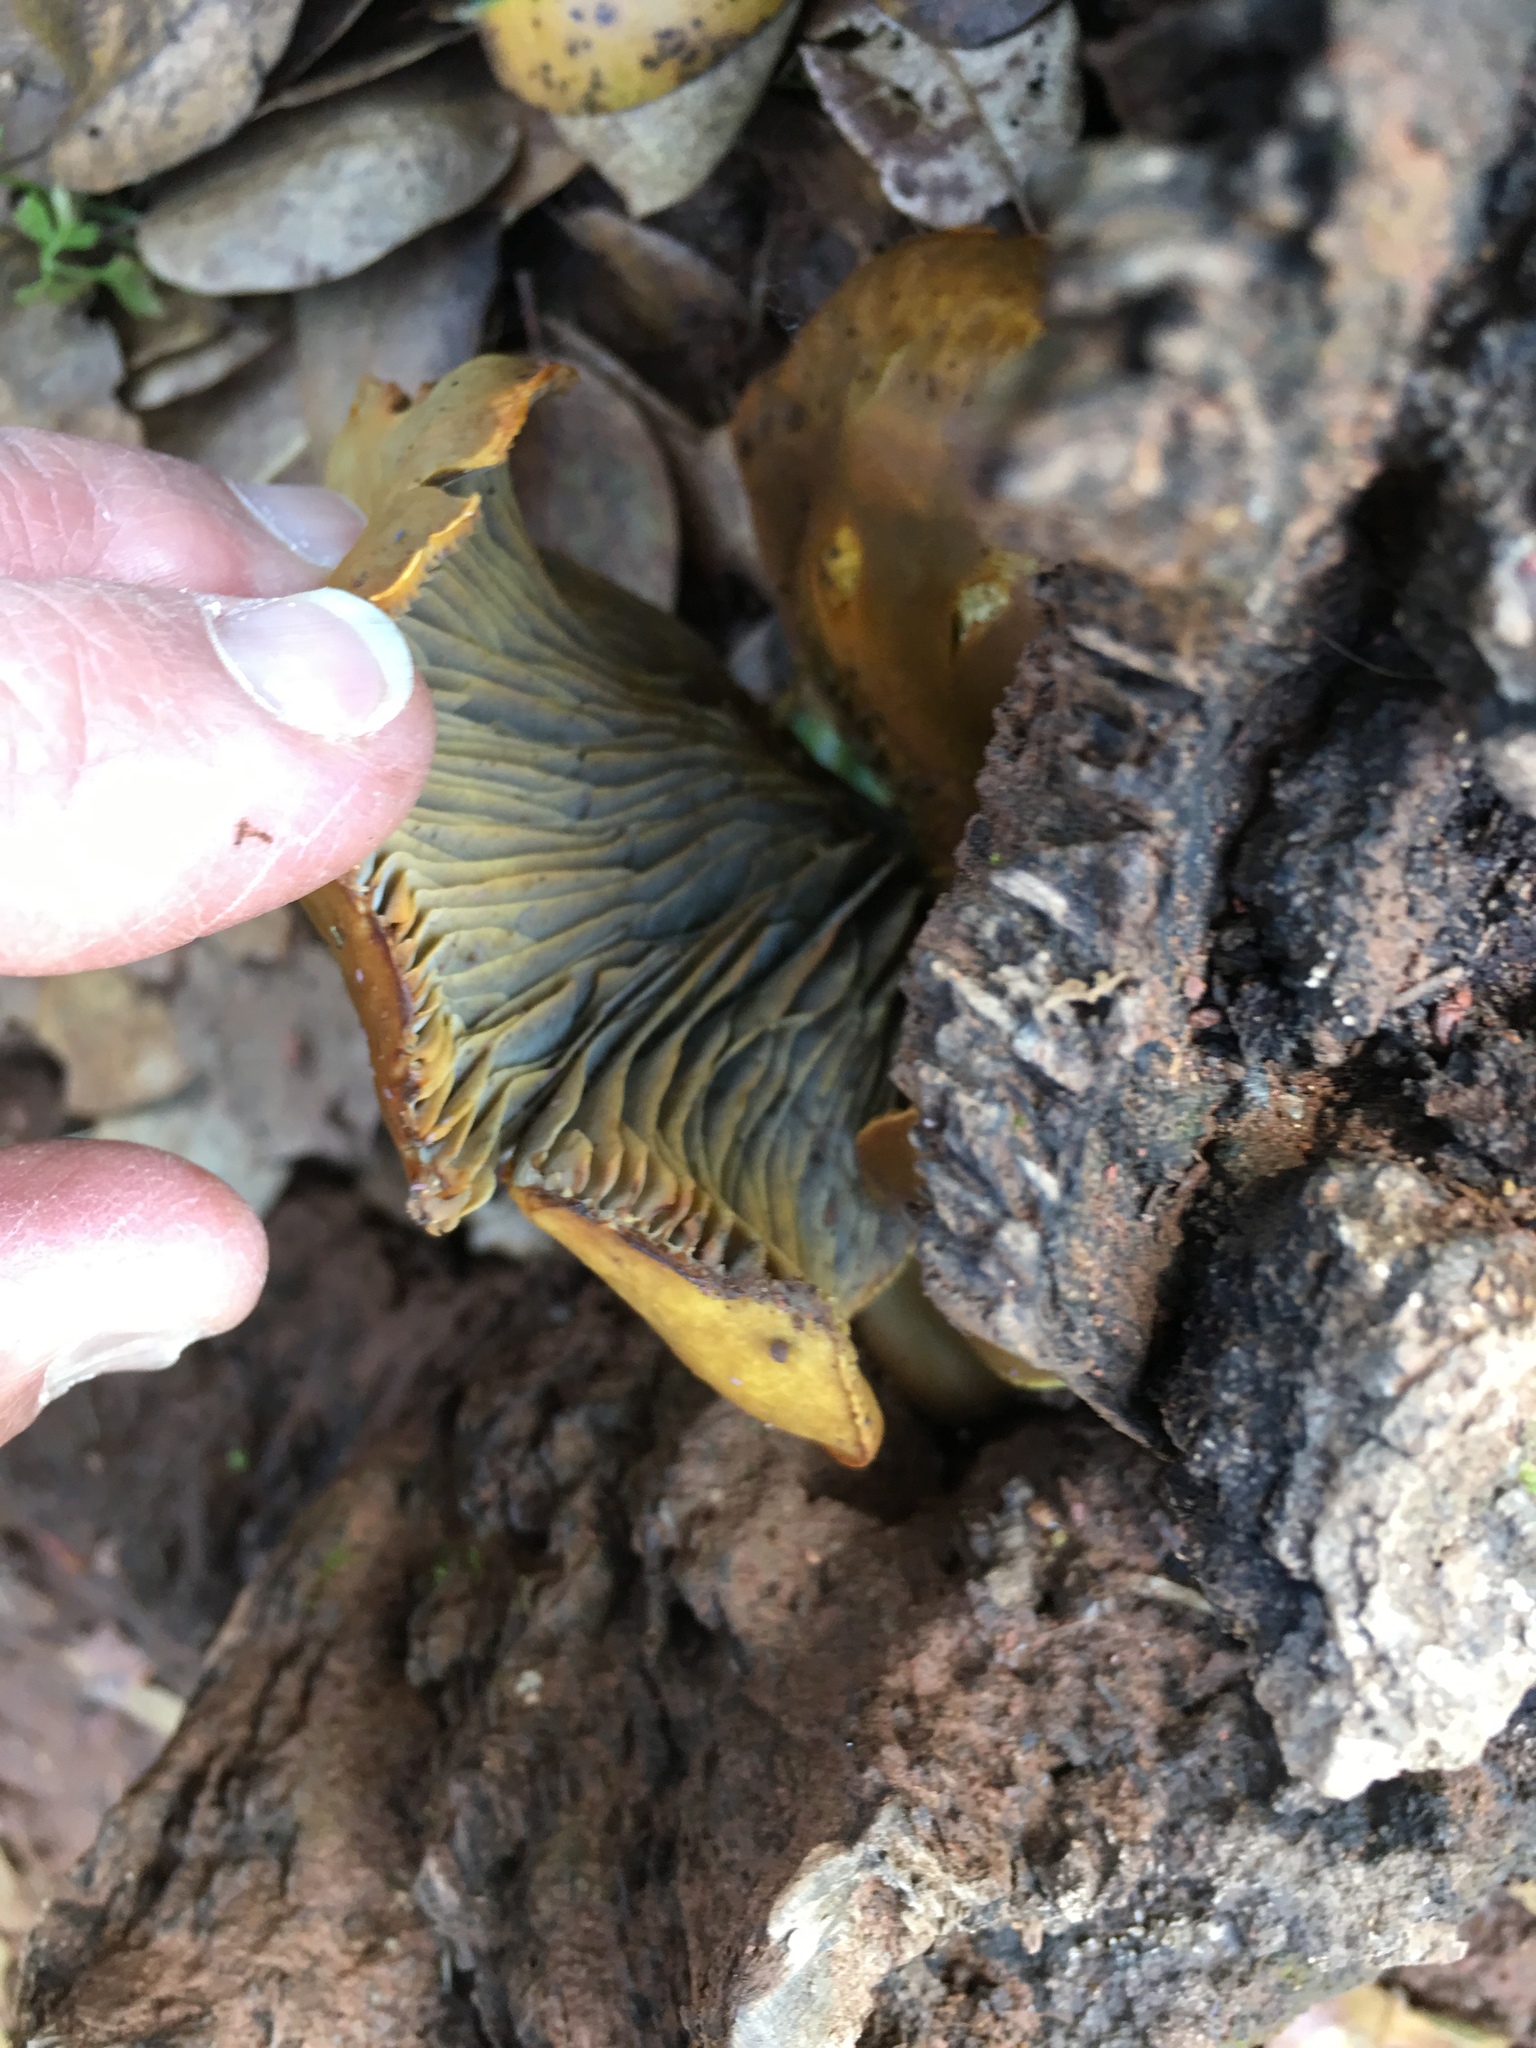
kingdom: Fungi
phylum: Basidiomycota
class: Agaricomycetes
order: Agaricales
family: Omphalotaceae
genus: Omphalotus
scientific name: Omphalotus olivascens
